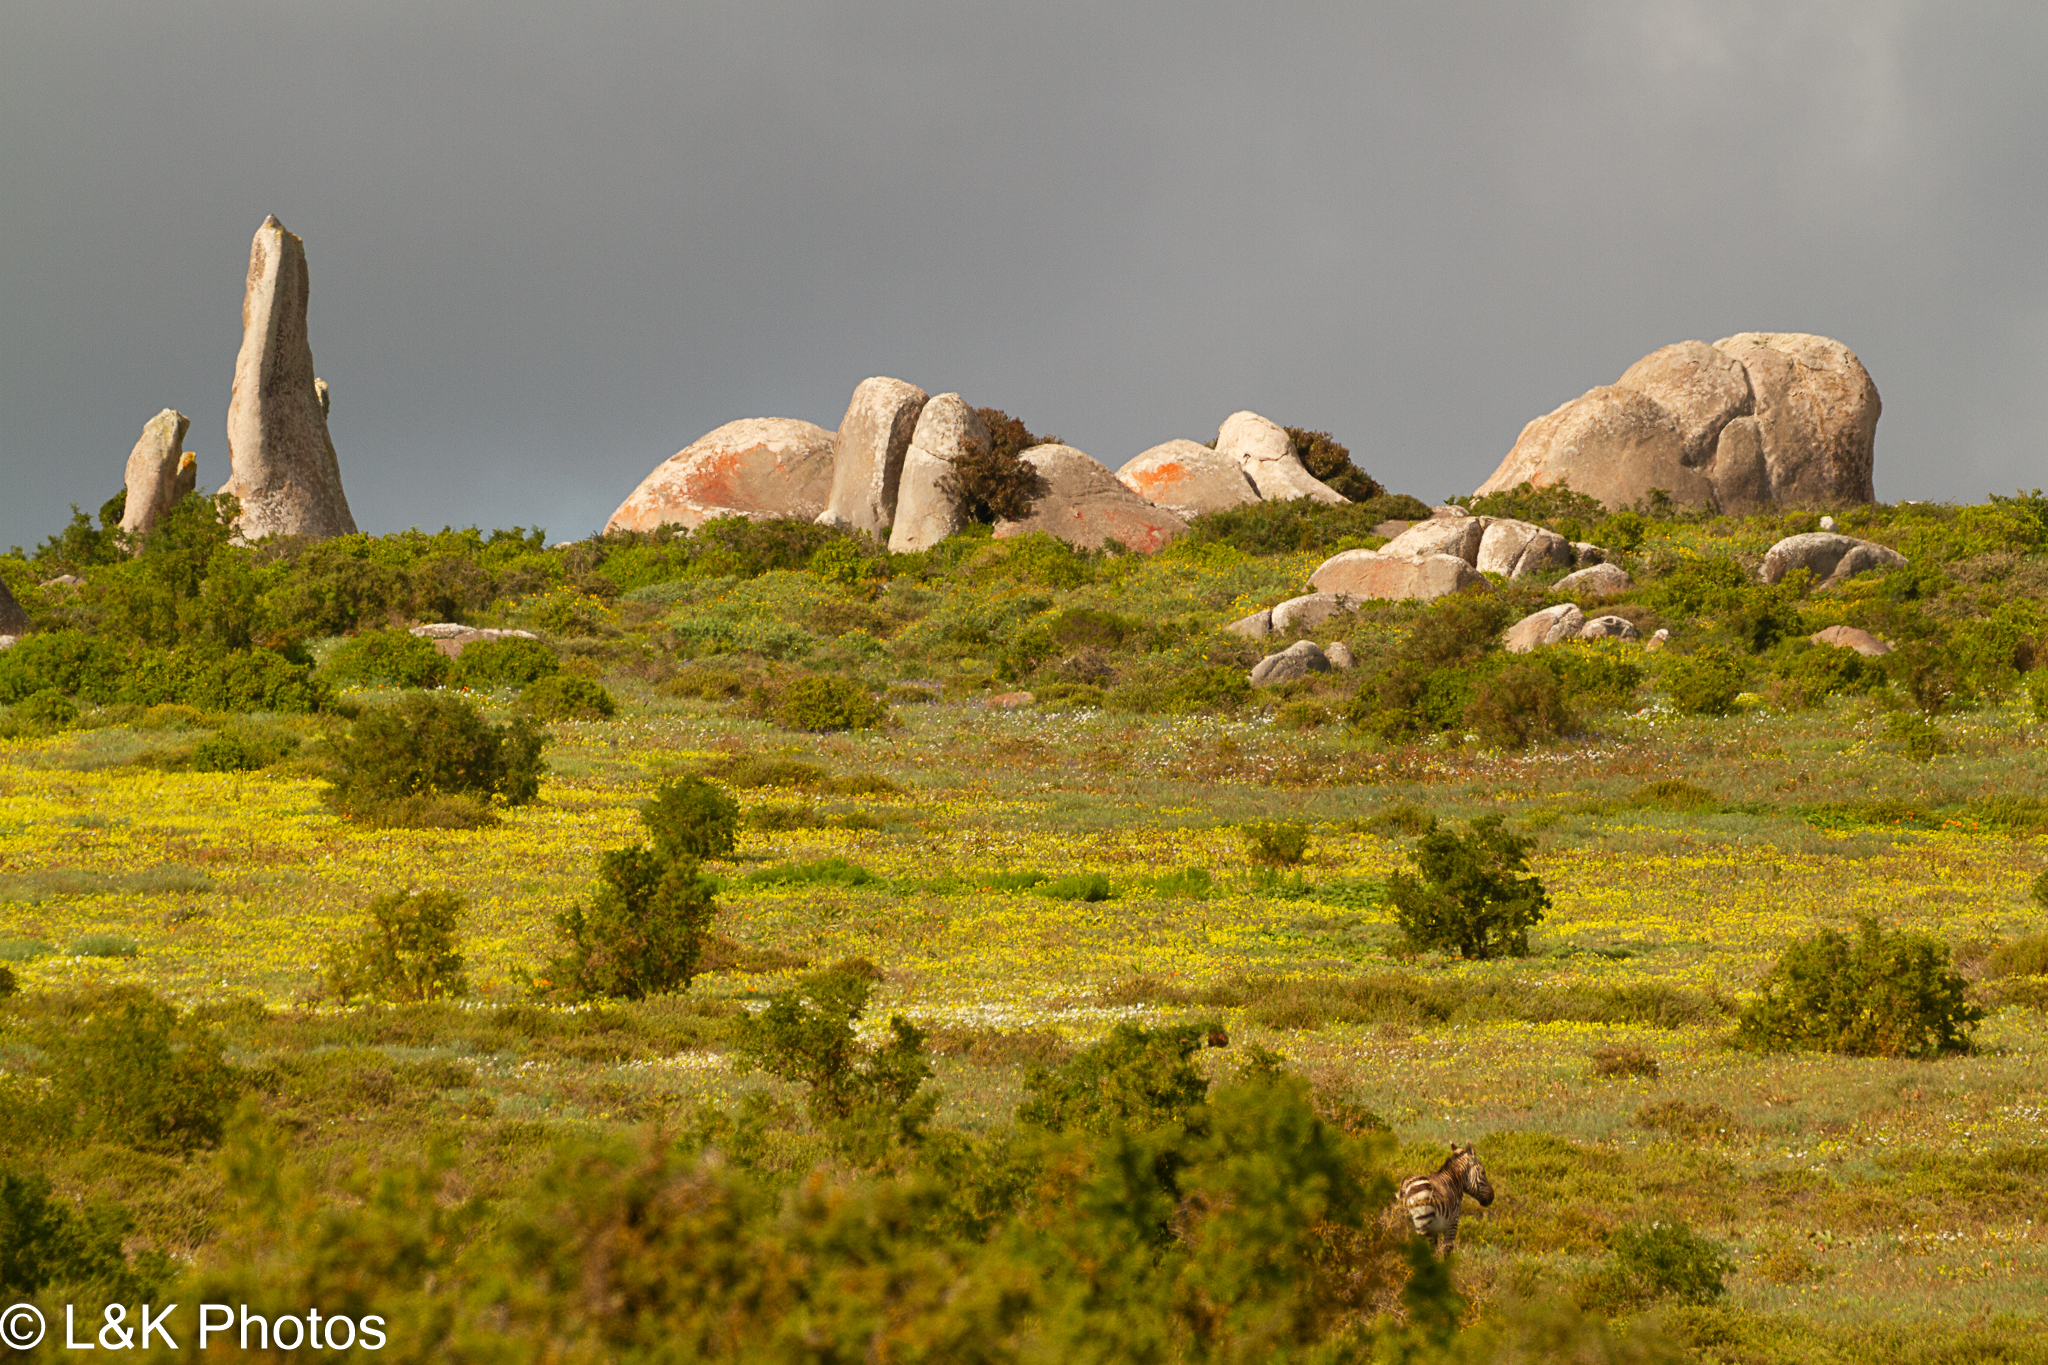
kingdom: Animalia
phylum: Chordata
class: Mammalia
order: Perissodactyla
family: Equidae
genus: Equus
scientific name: Equus zebra
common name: Mountain zebra
